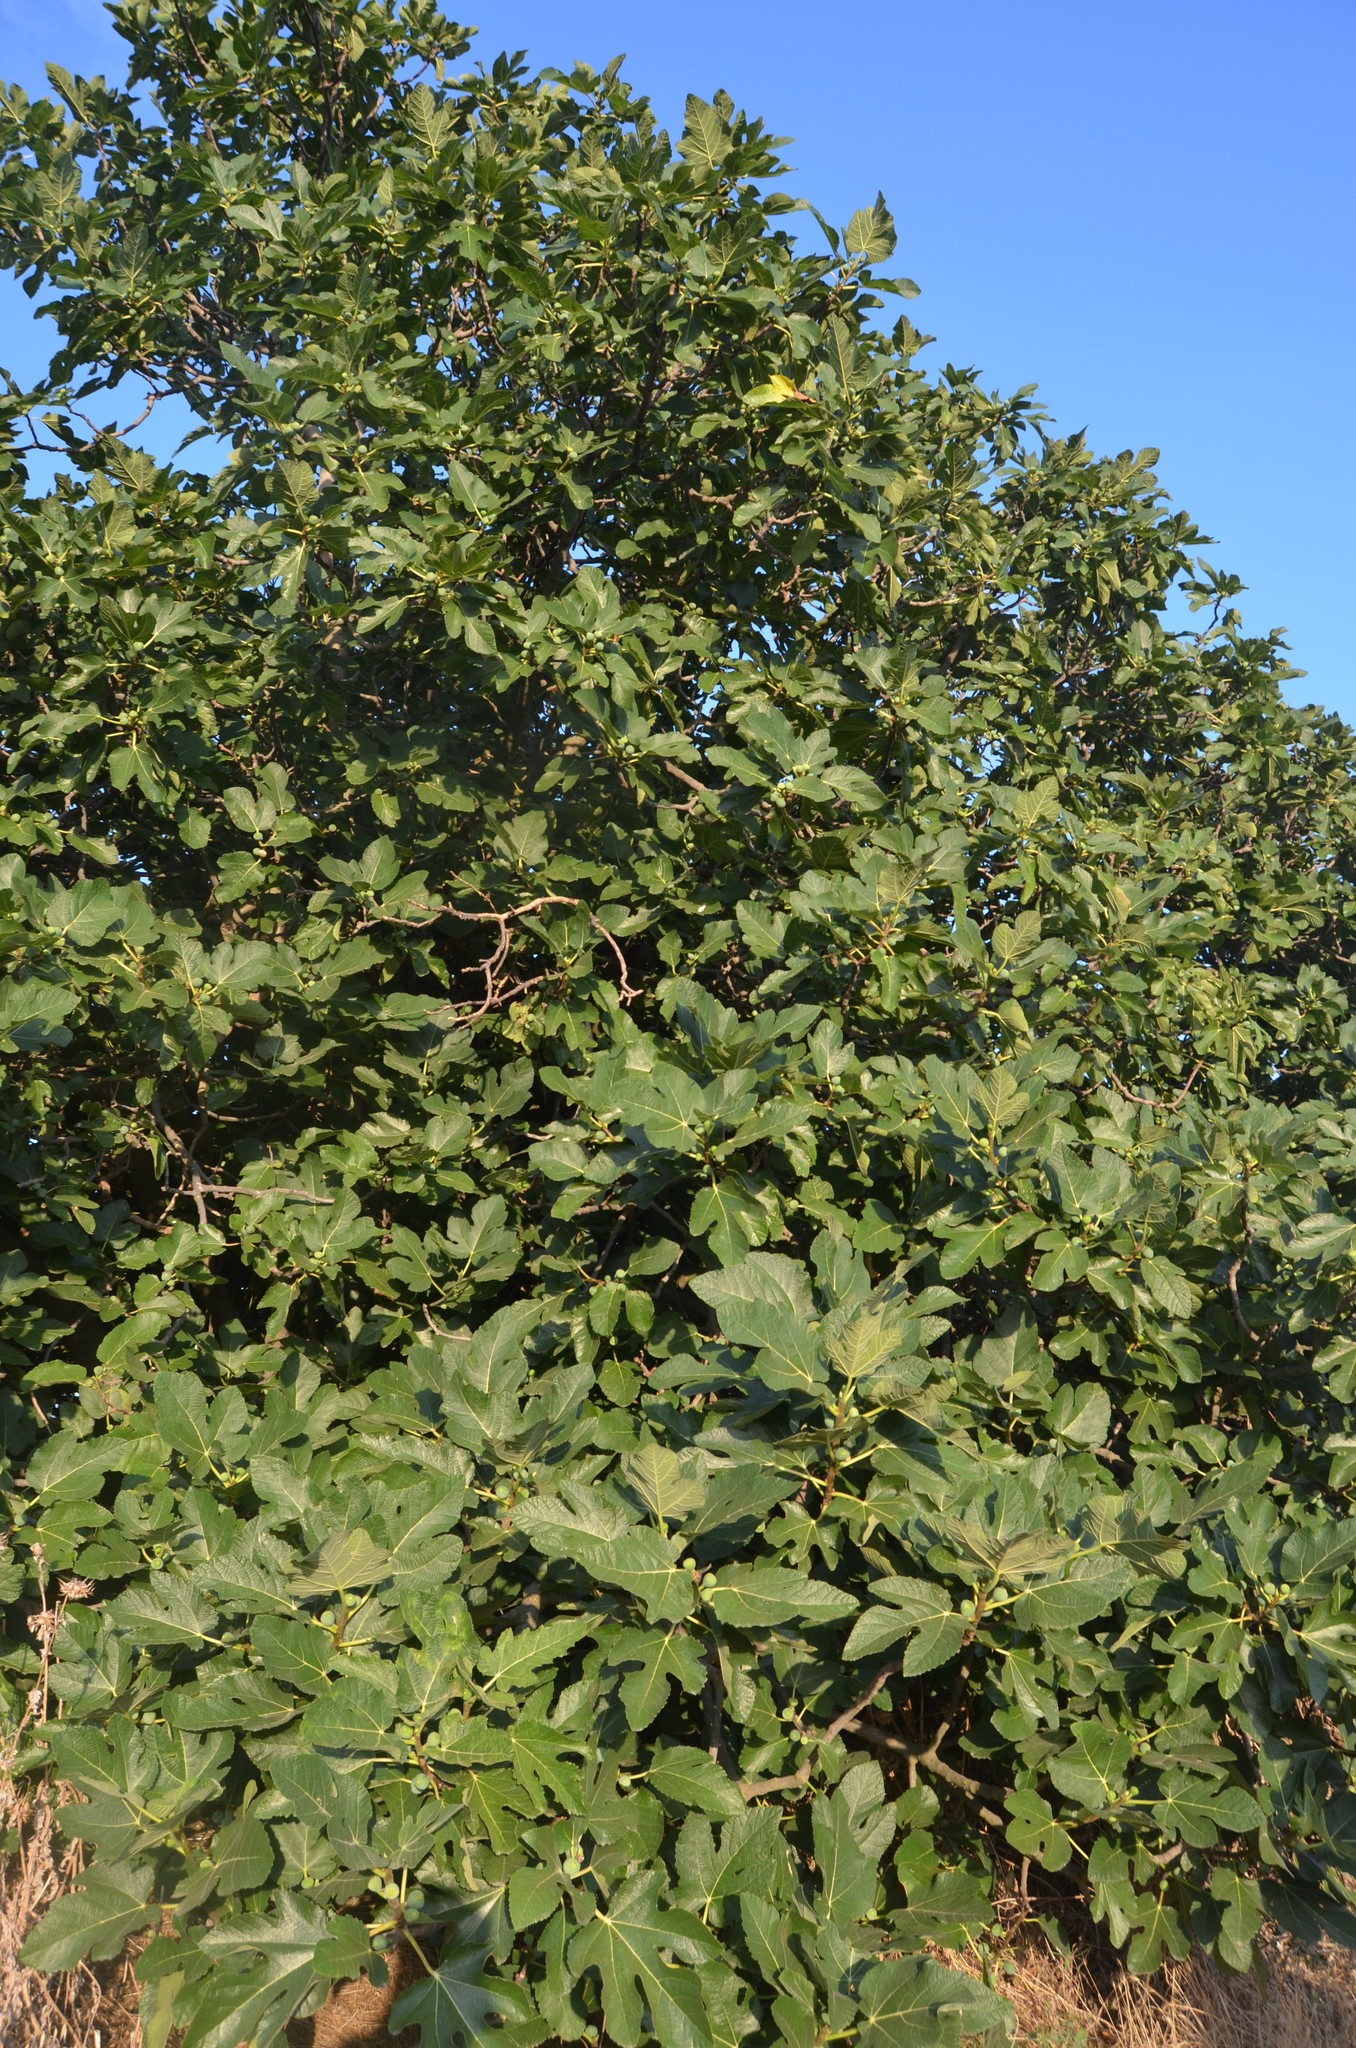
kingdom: Plantae
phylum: Tracheophyta
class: Magnoliopsida
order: Rosales
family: Moraceae
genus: Ficus
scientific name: Ficus carica
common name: Fig
